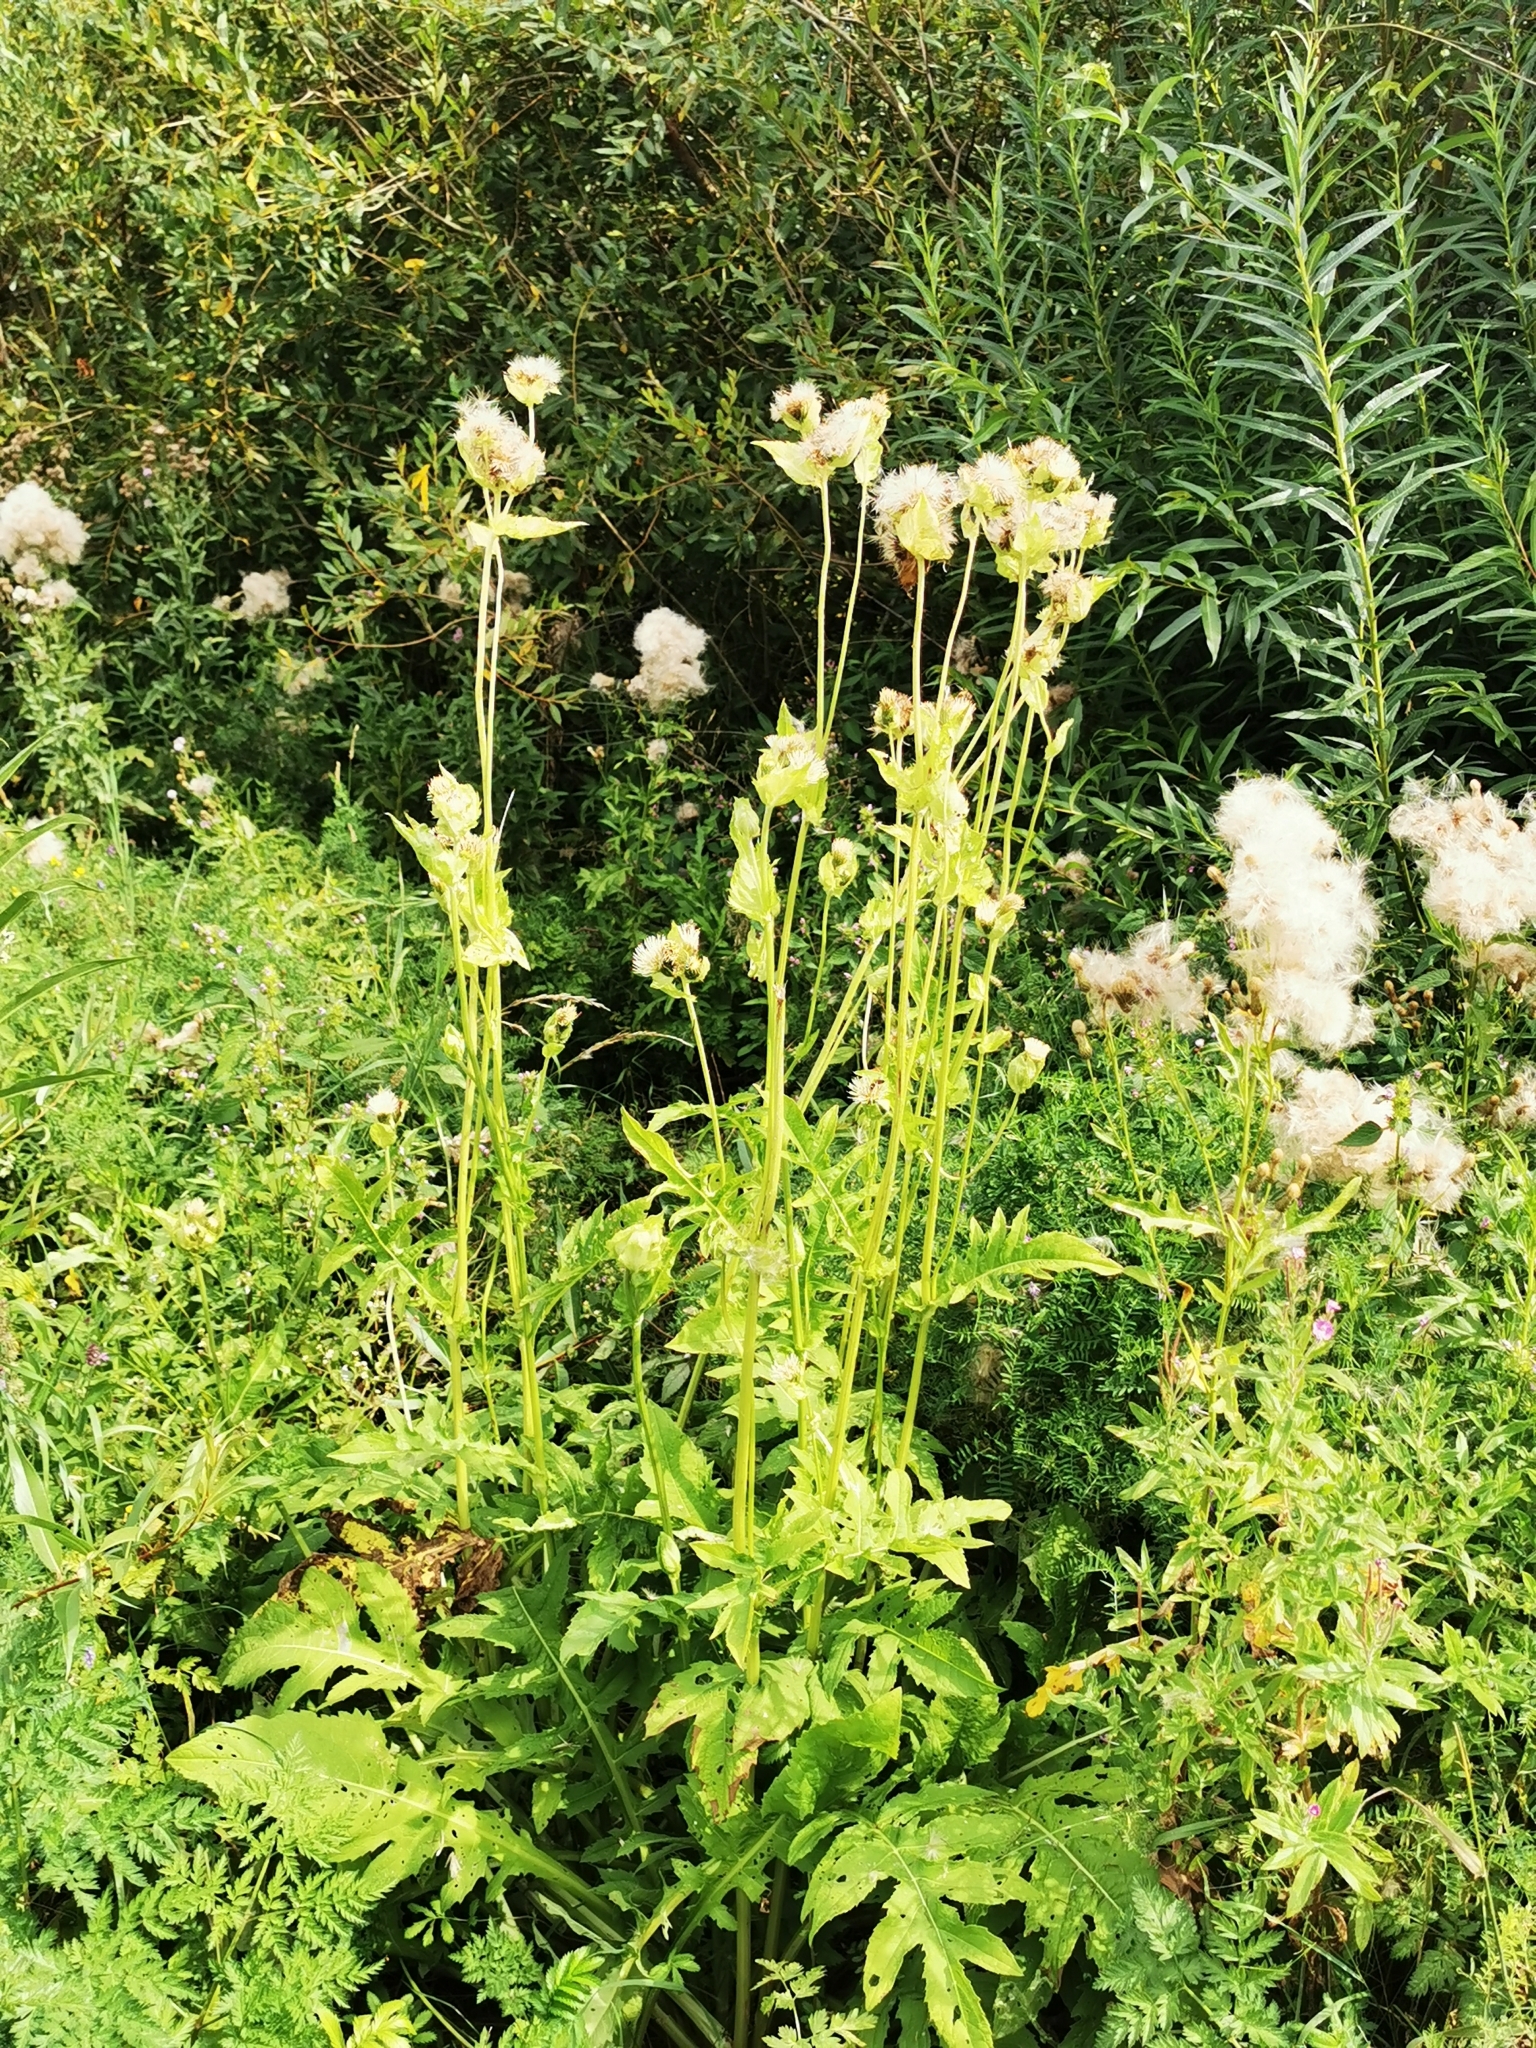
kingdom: Plantae
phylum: Tracheophyta
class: Magnoliopsida
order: Asterales
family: Asteraceae
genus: Cirsium
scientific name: Cirsium oleraceum
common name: Cabbage thistle
